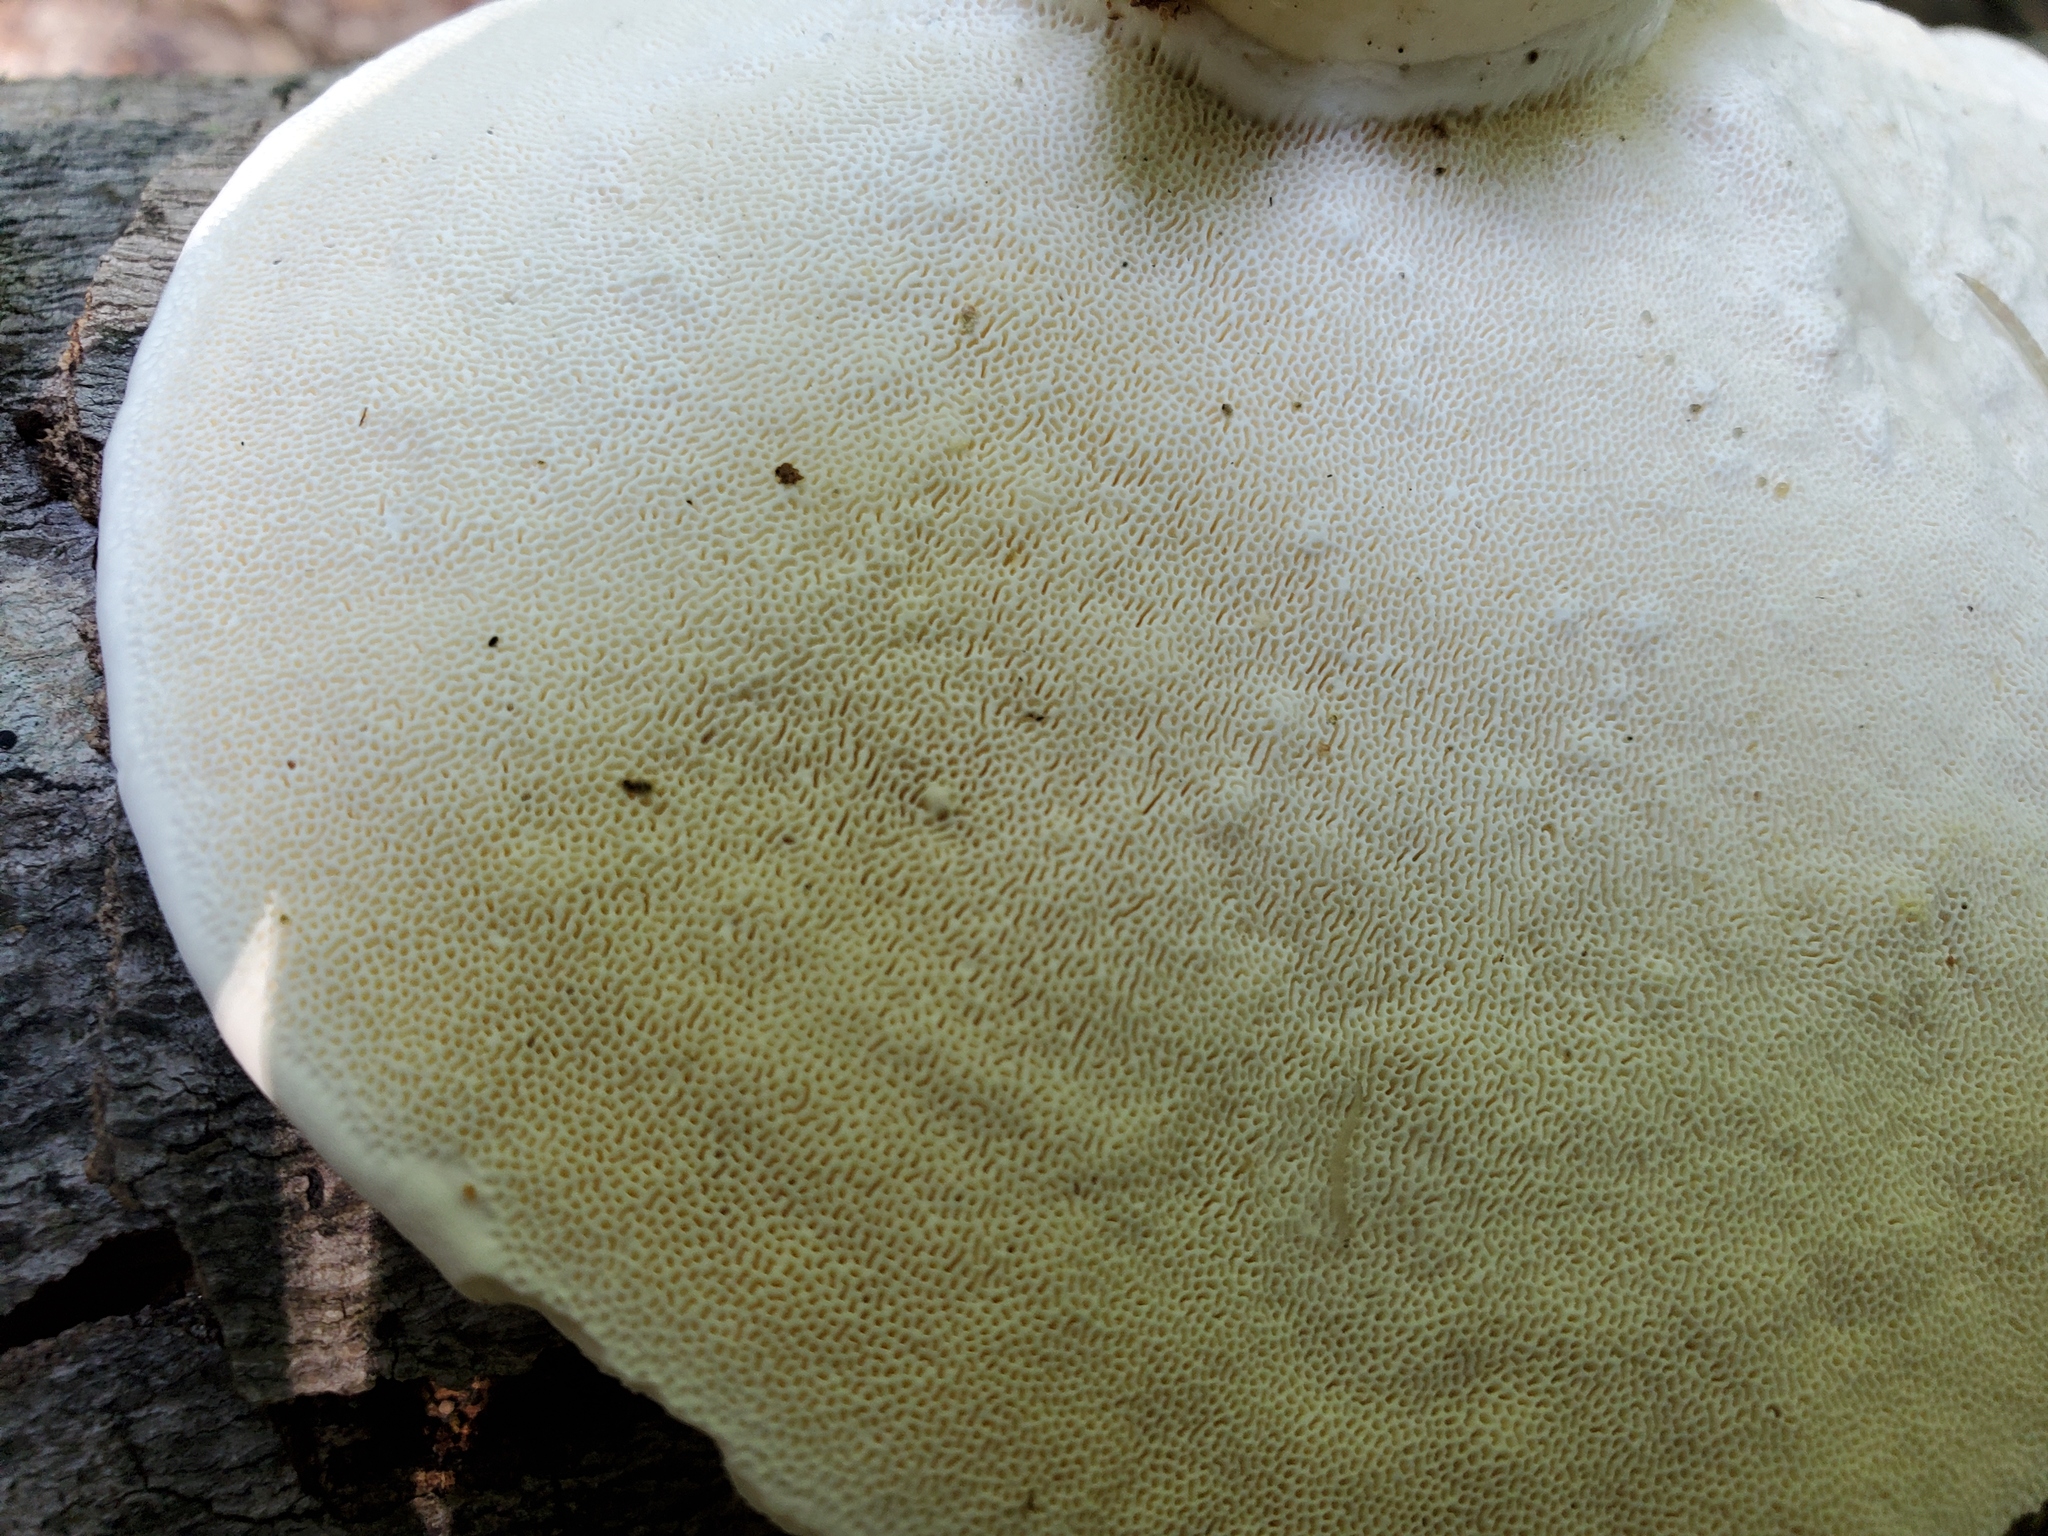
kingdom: Fungi
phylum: Basidiomycota
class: Agaricomycetes
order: Polyporales
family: Polyporaceae
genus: Trametes
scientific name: Trametes
